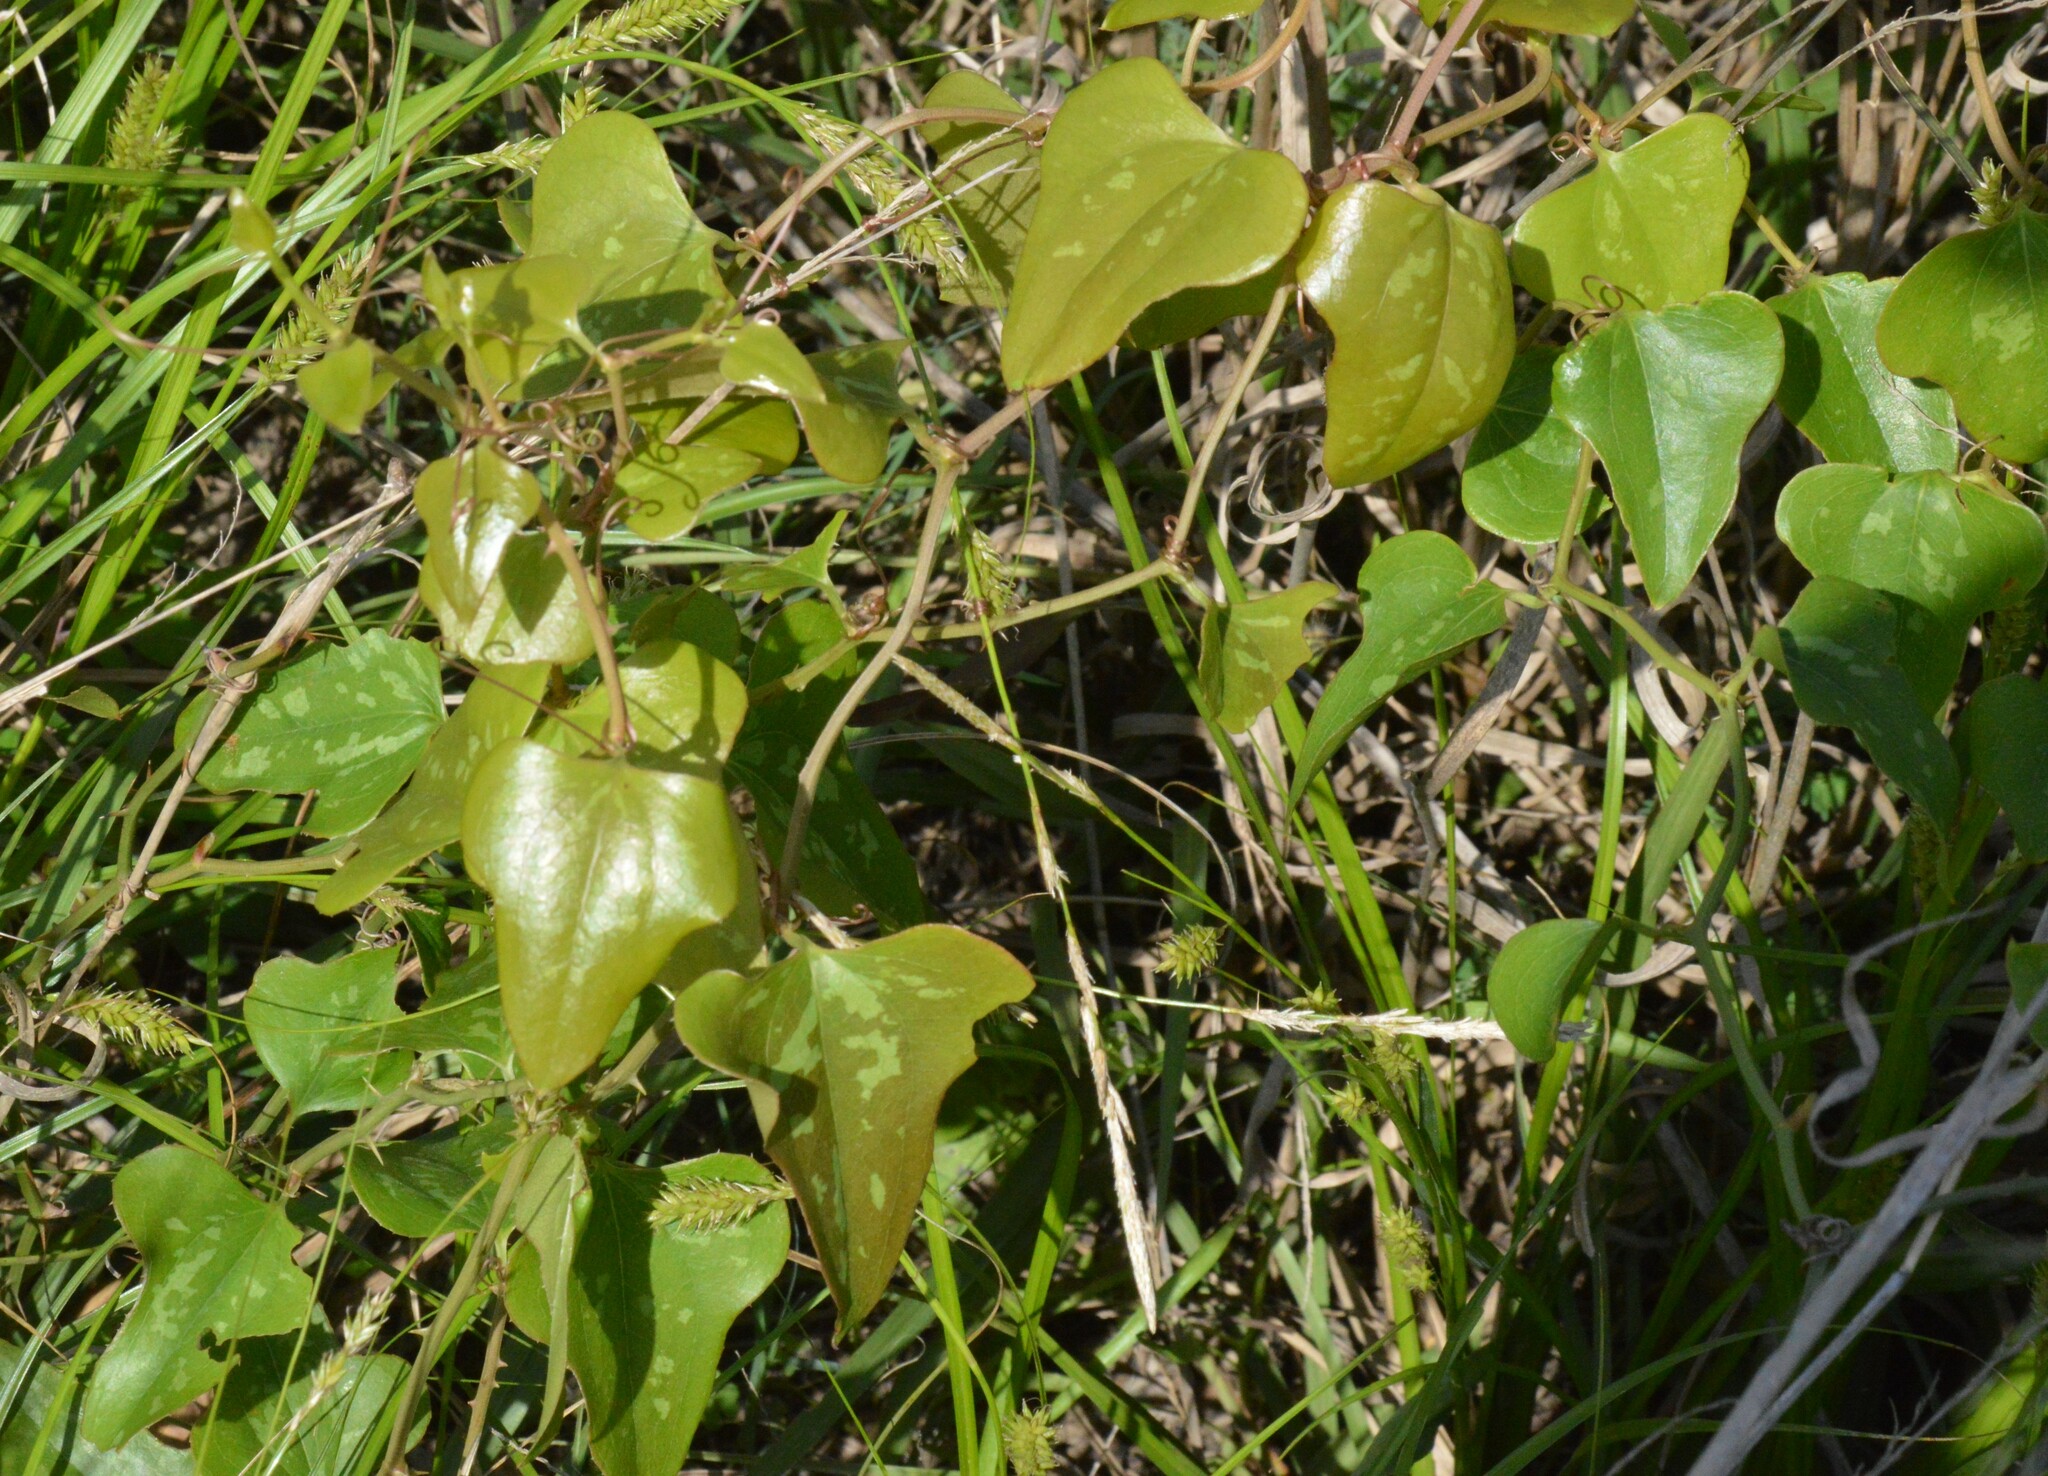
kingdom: Plantae
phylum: Tracheophyta
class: Liliopsida
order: Liliales
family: Smilacaceae
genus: Smilax
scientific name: Smilax bona-nox
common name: Catbrier
